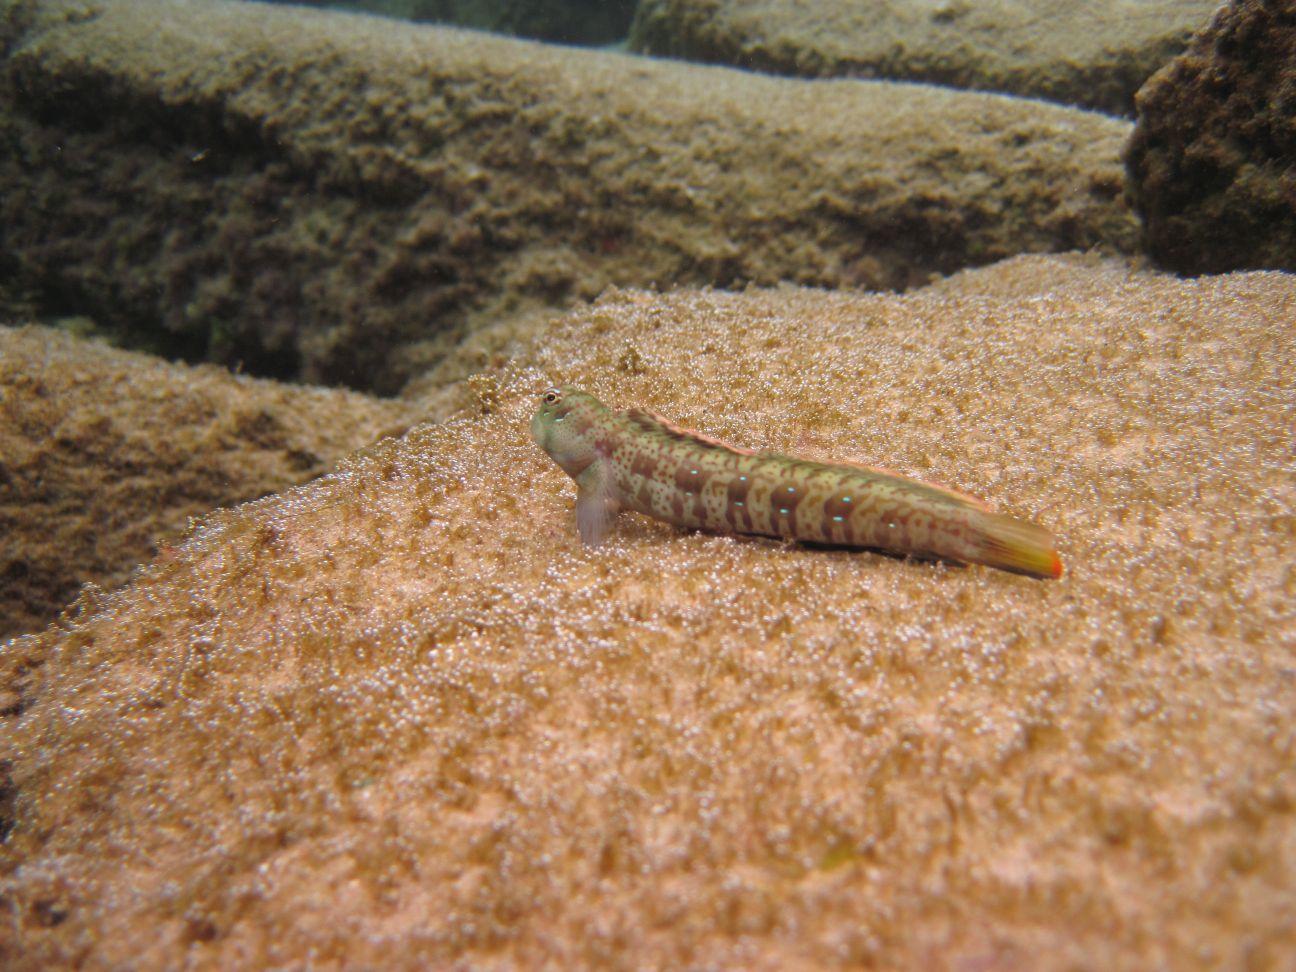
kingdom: Animalia
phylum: Chordata
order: Perciformes
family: Blenniidae
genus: Blenniella
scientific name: Blenniella periophthalmus
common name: Blue-dashed rockskipper
